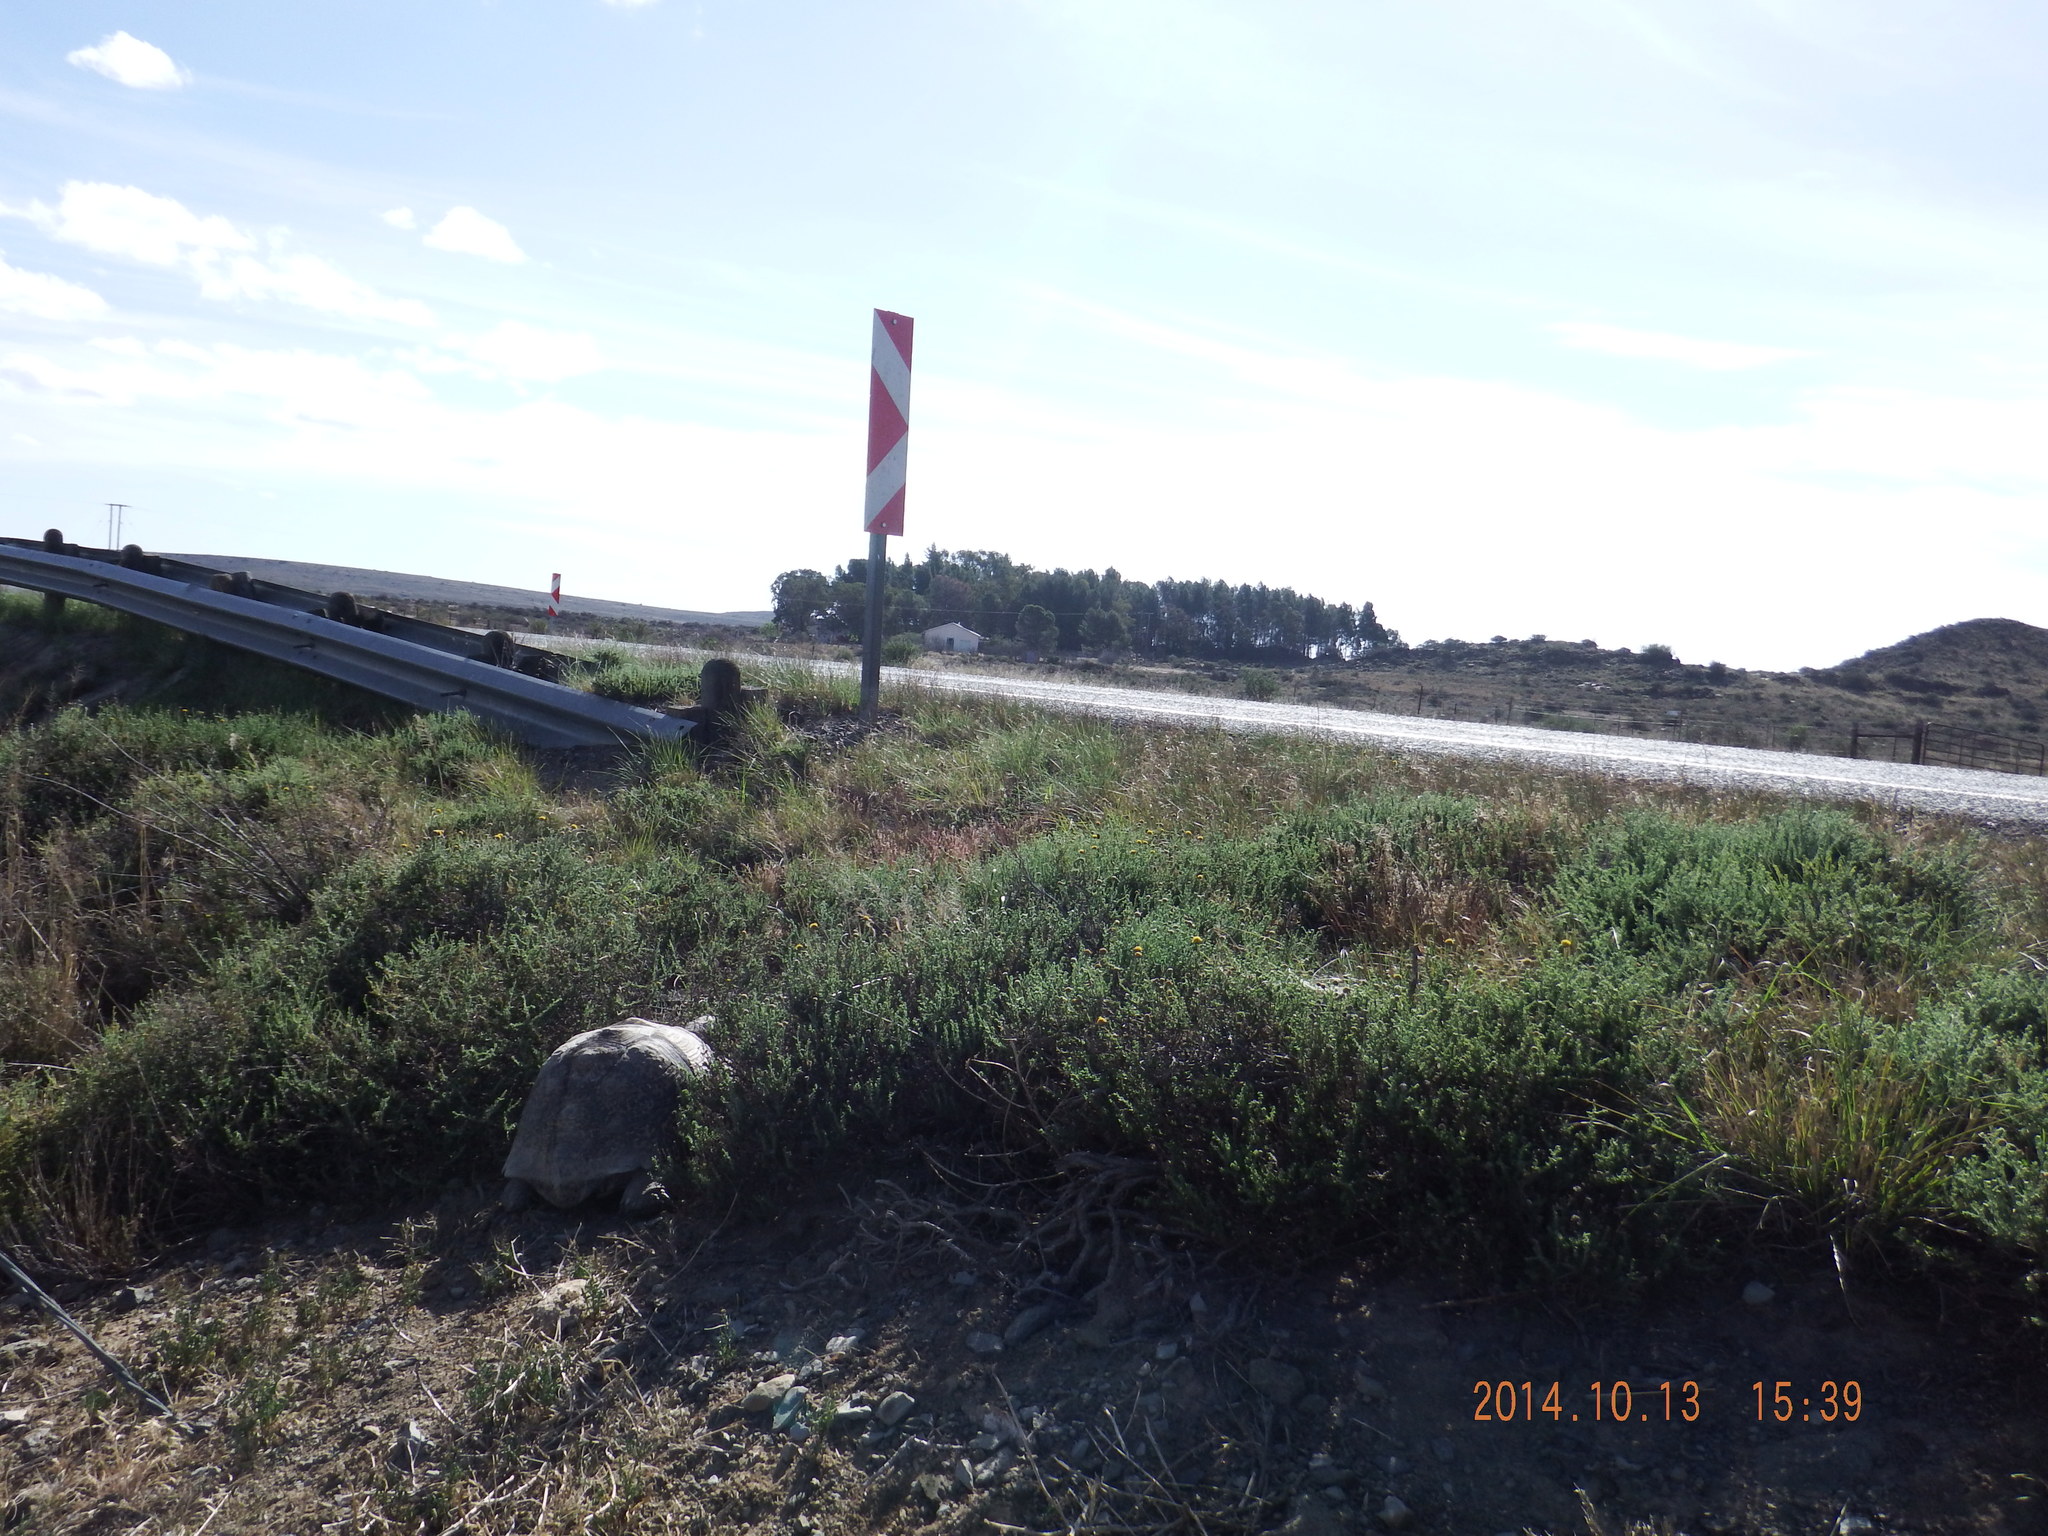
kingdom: Animalia
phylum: Chordata
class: Testudines
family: Testudinidae
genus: Stigmochelys
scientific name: Stigmochelys pardalis
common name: Leopard tortoise
